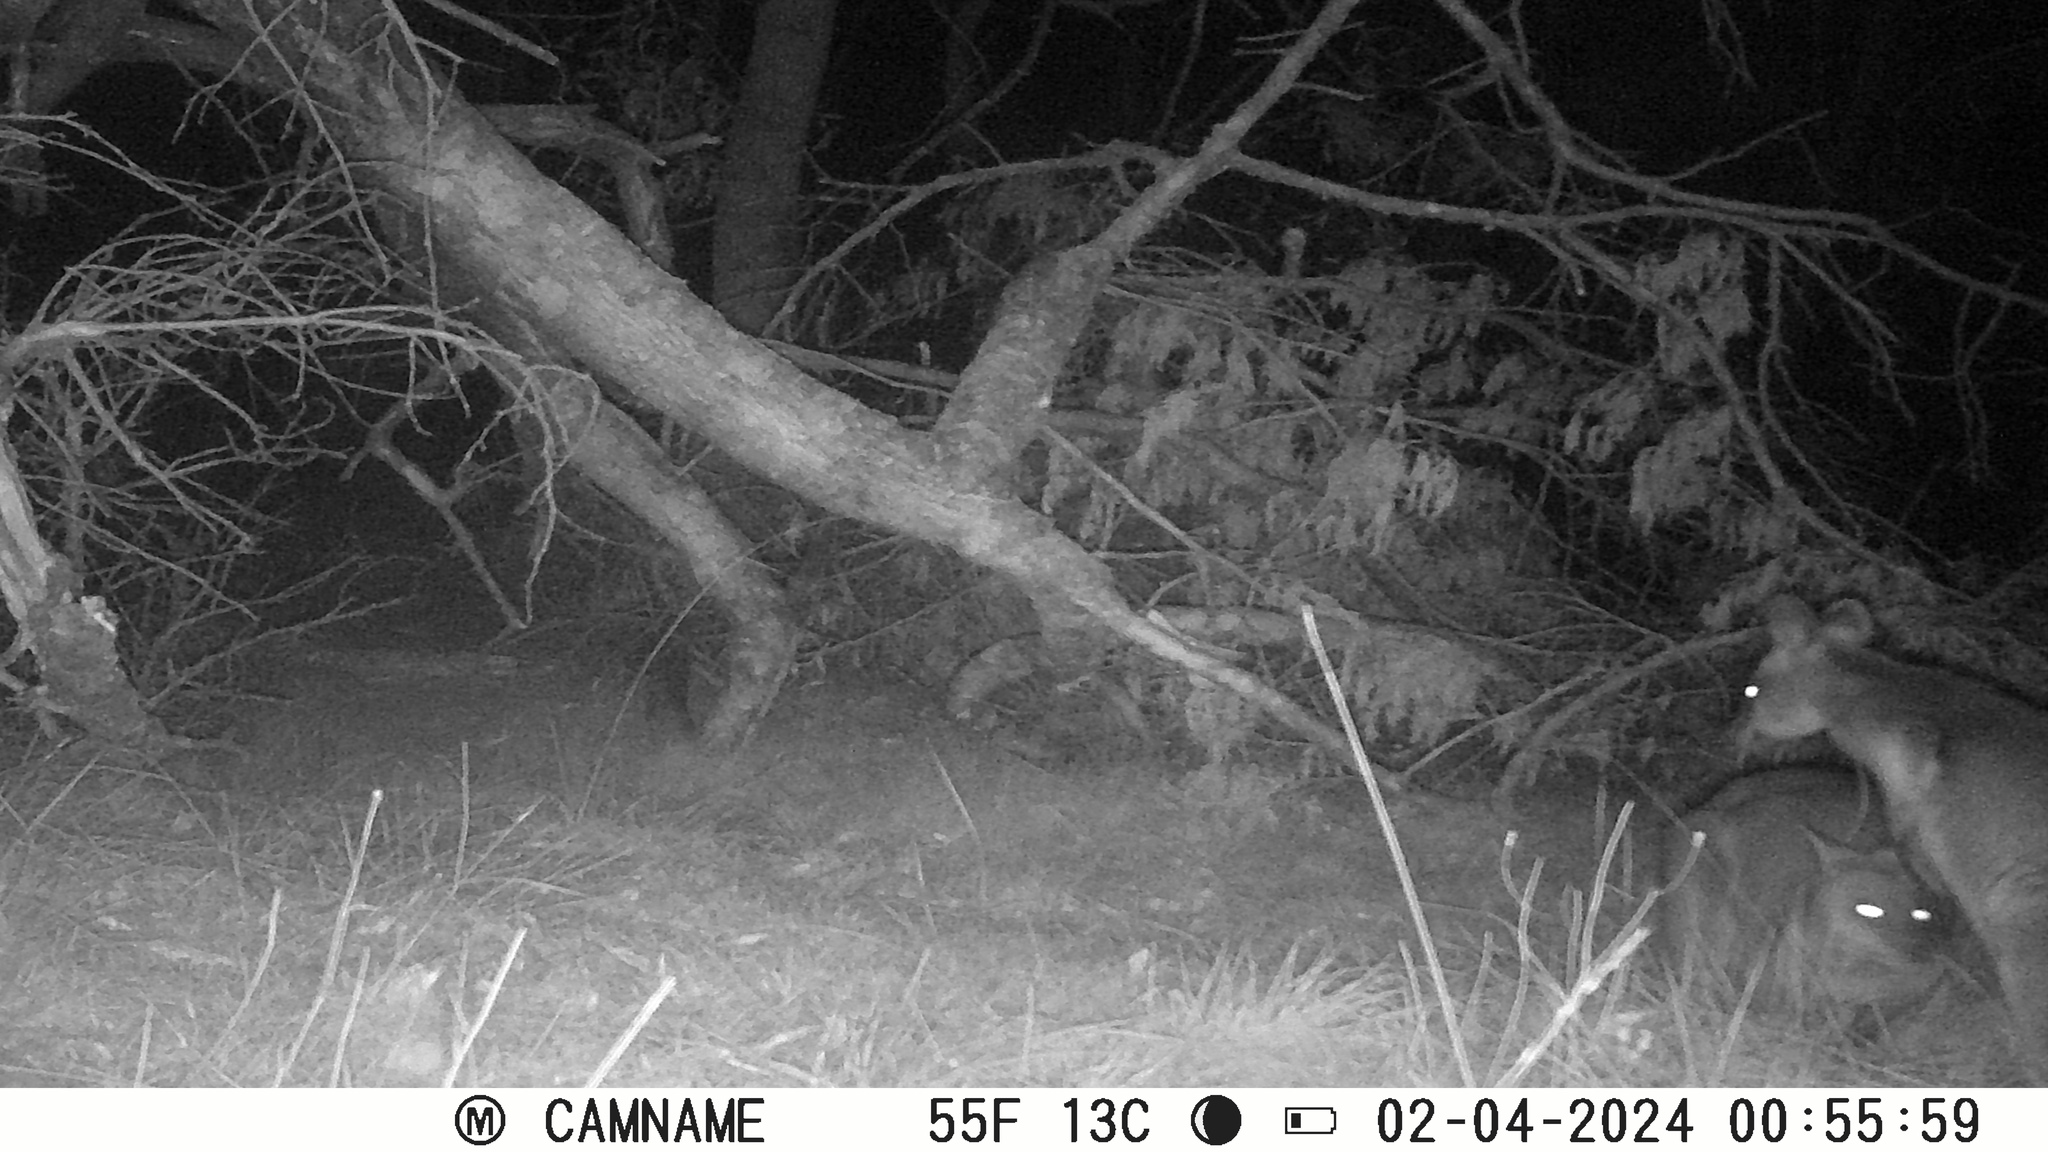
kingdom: Animalia
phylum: Chordata
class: Mammalia
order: Diprotodontia
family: Macropodidae
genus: Wallabia
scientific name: Wallabia bicolor
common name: Swamp wallaby
